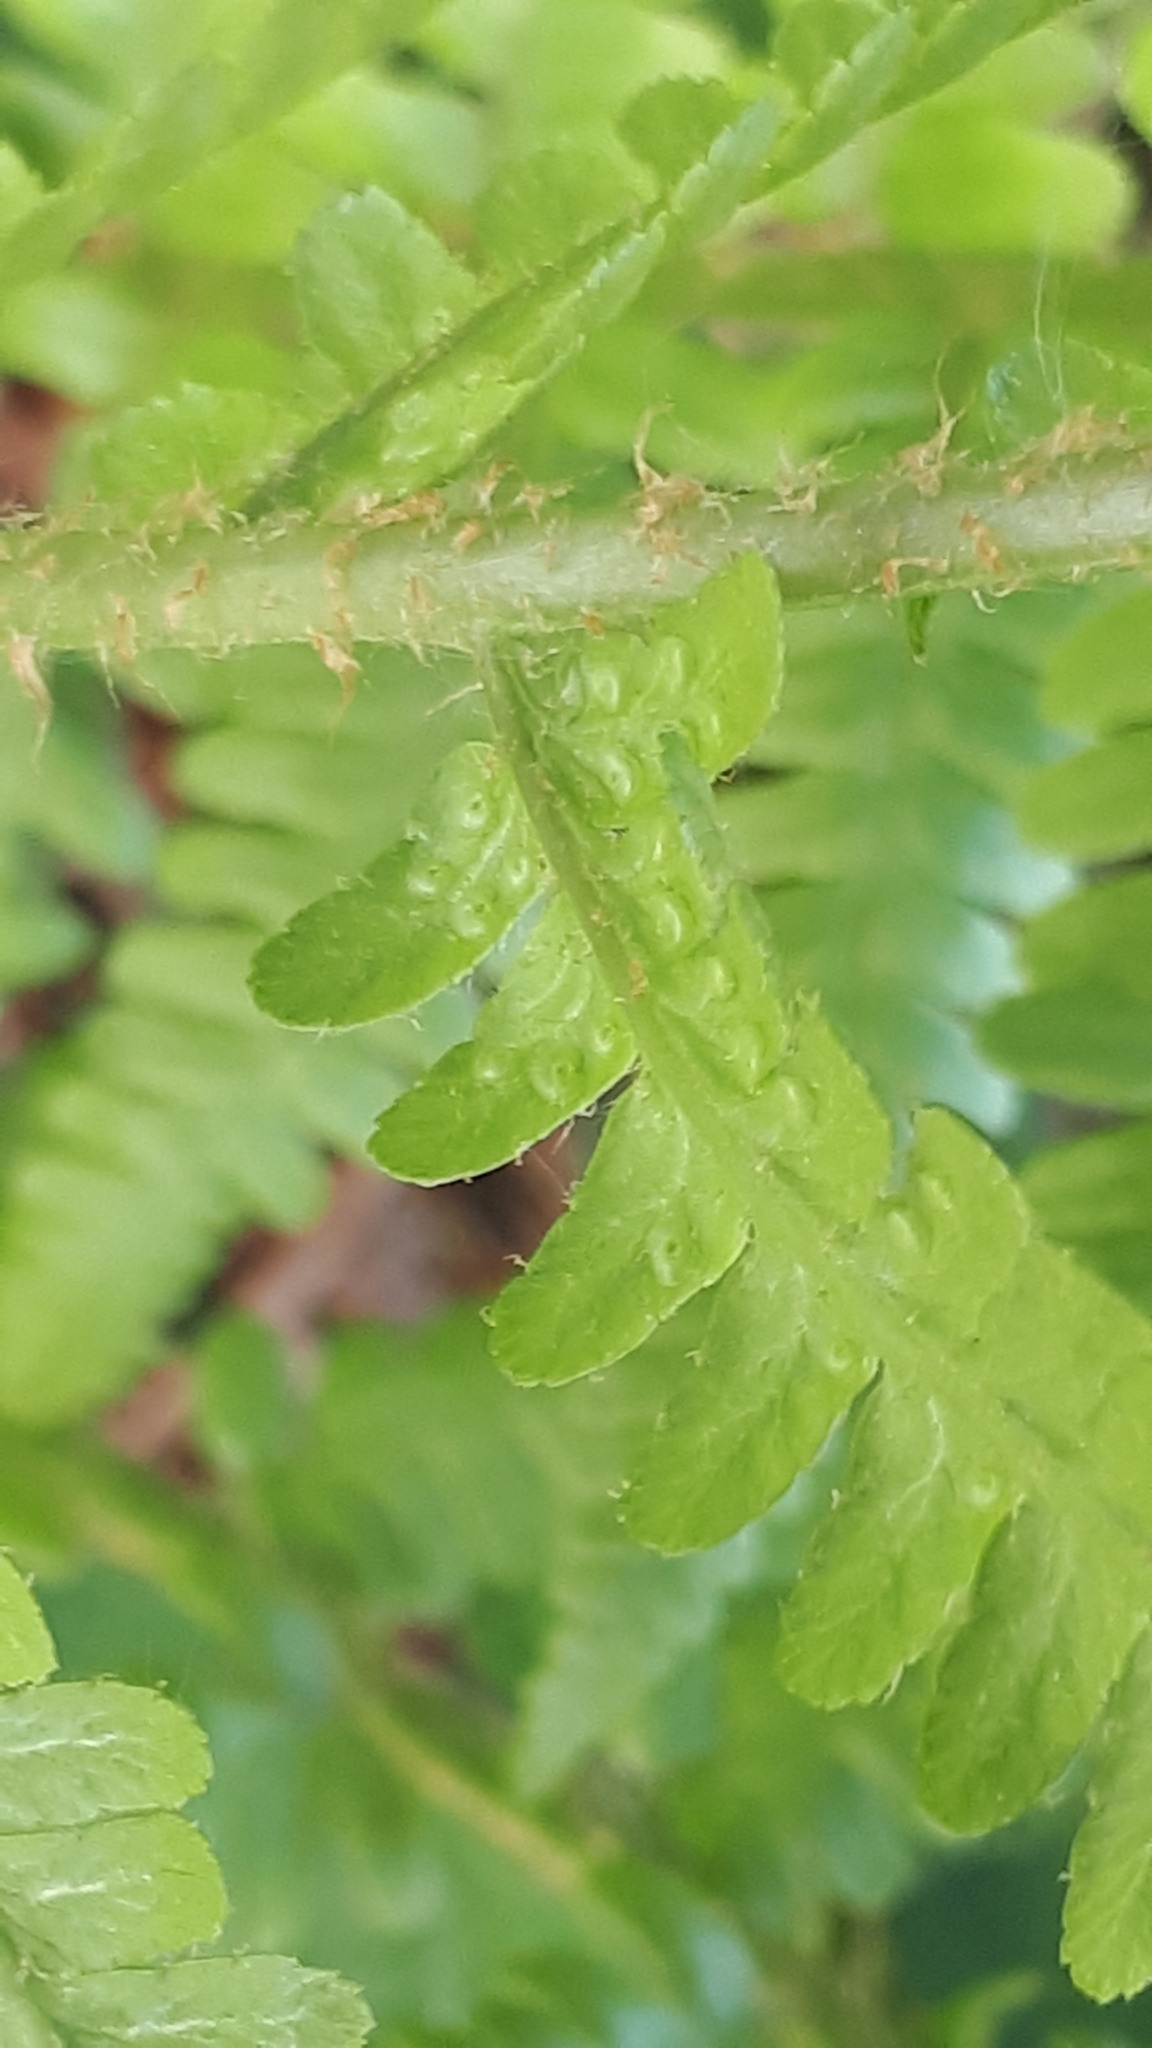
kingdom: Plantae
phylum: Tracheophyta
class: Polypodiopsida
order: Polypodiales
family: Dryopteridaceae
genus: Dryopteris
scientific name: Dryopteris filix-mas
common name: Male fern
